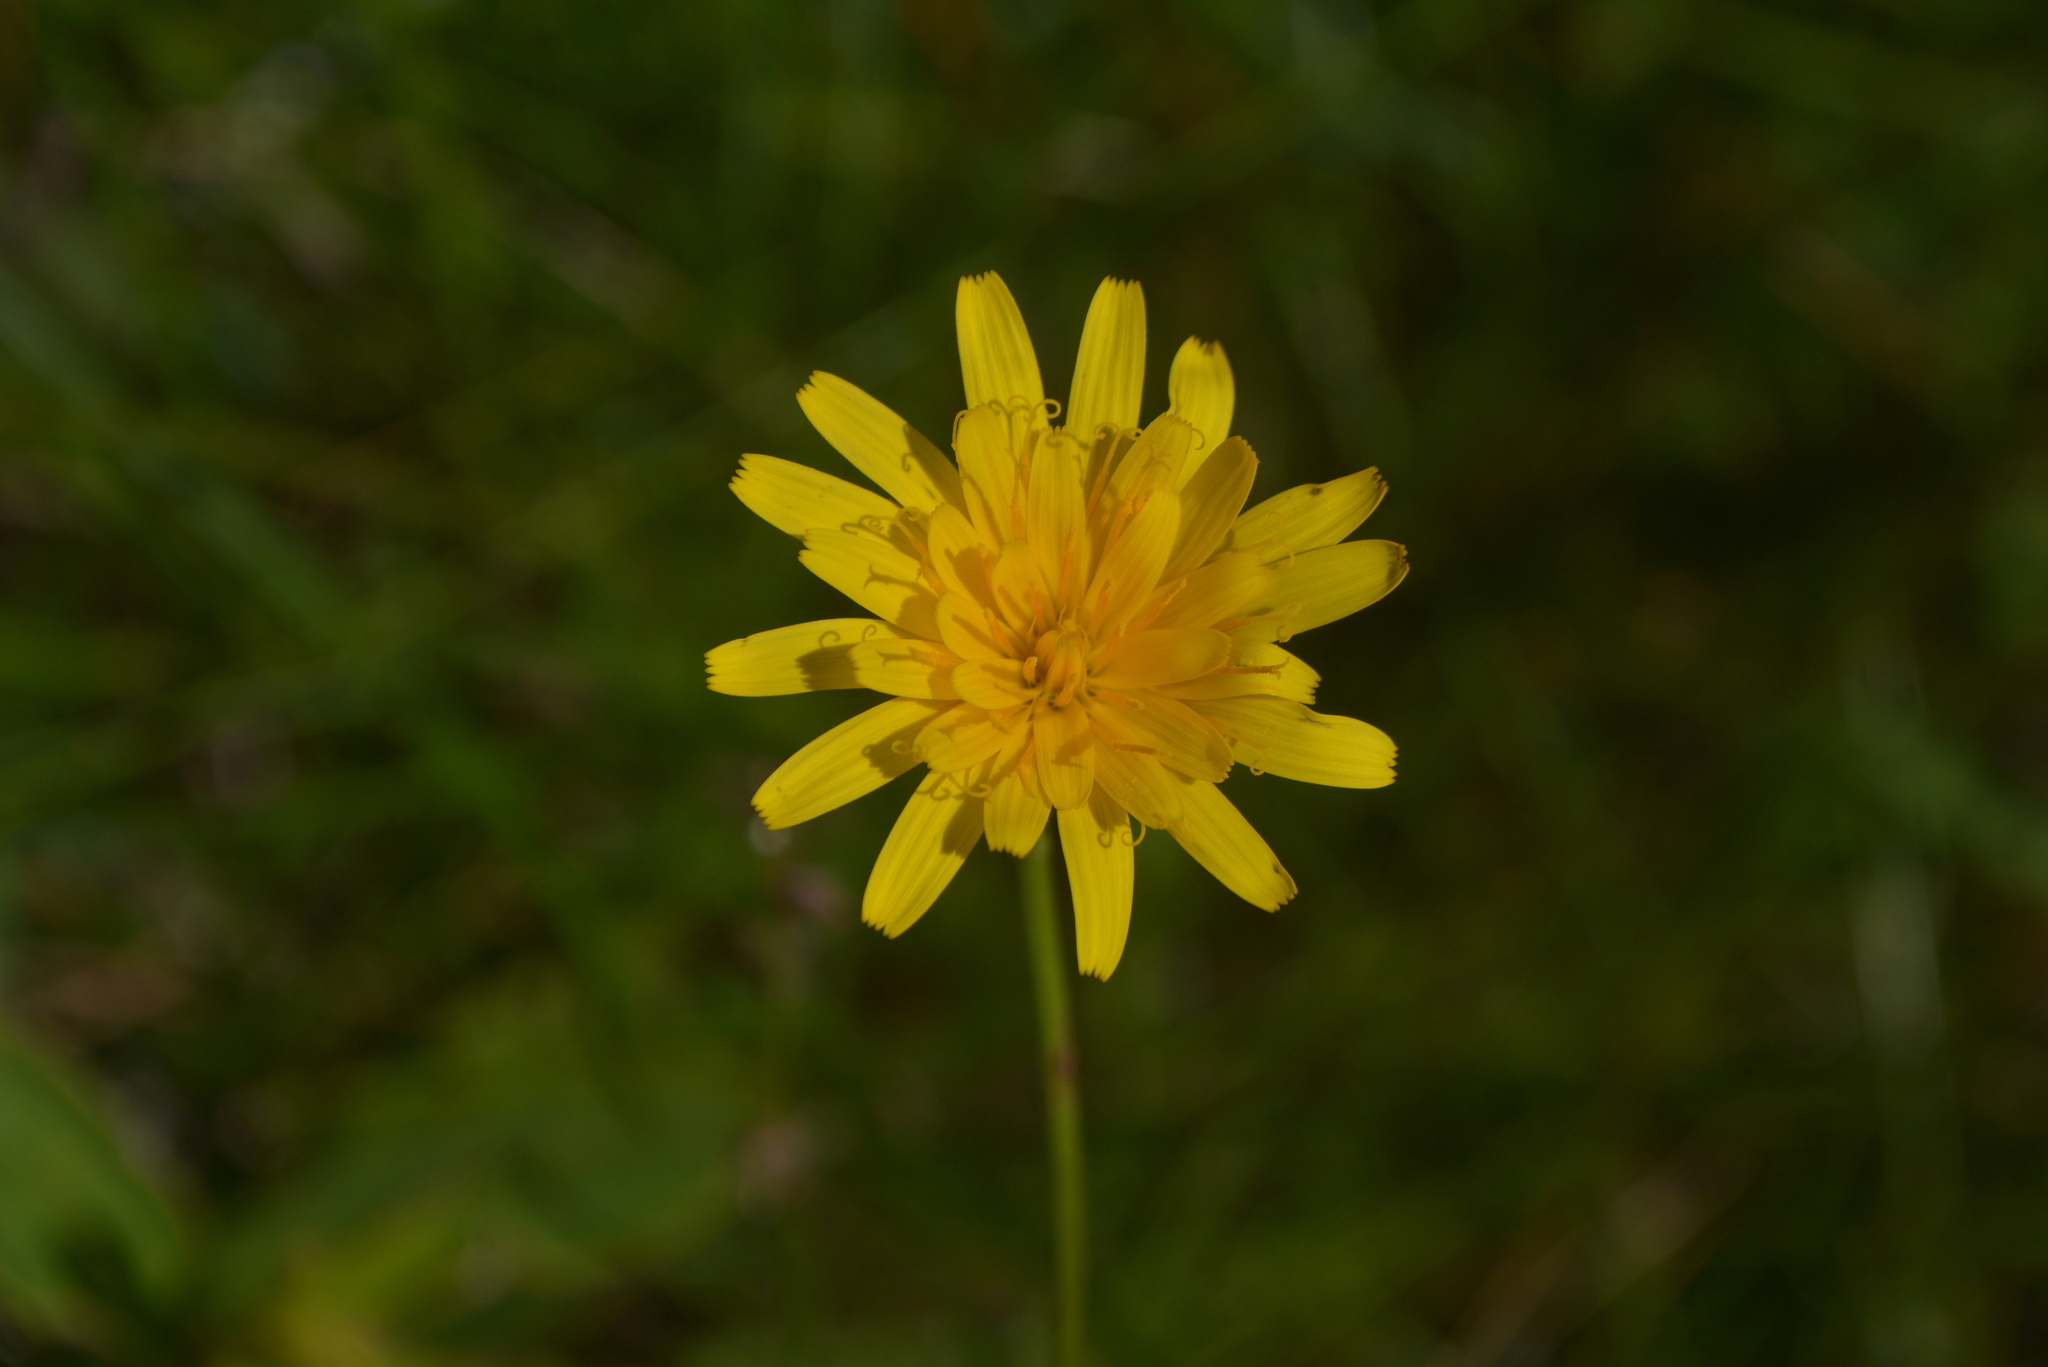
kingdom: Plantae
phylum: Tracheophyta
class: Magnoliopsida
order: Asterales
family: Asteraceae
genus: Hypochaeris
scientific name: Hypochaeris lutea
